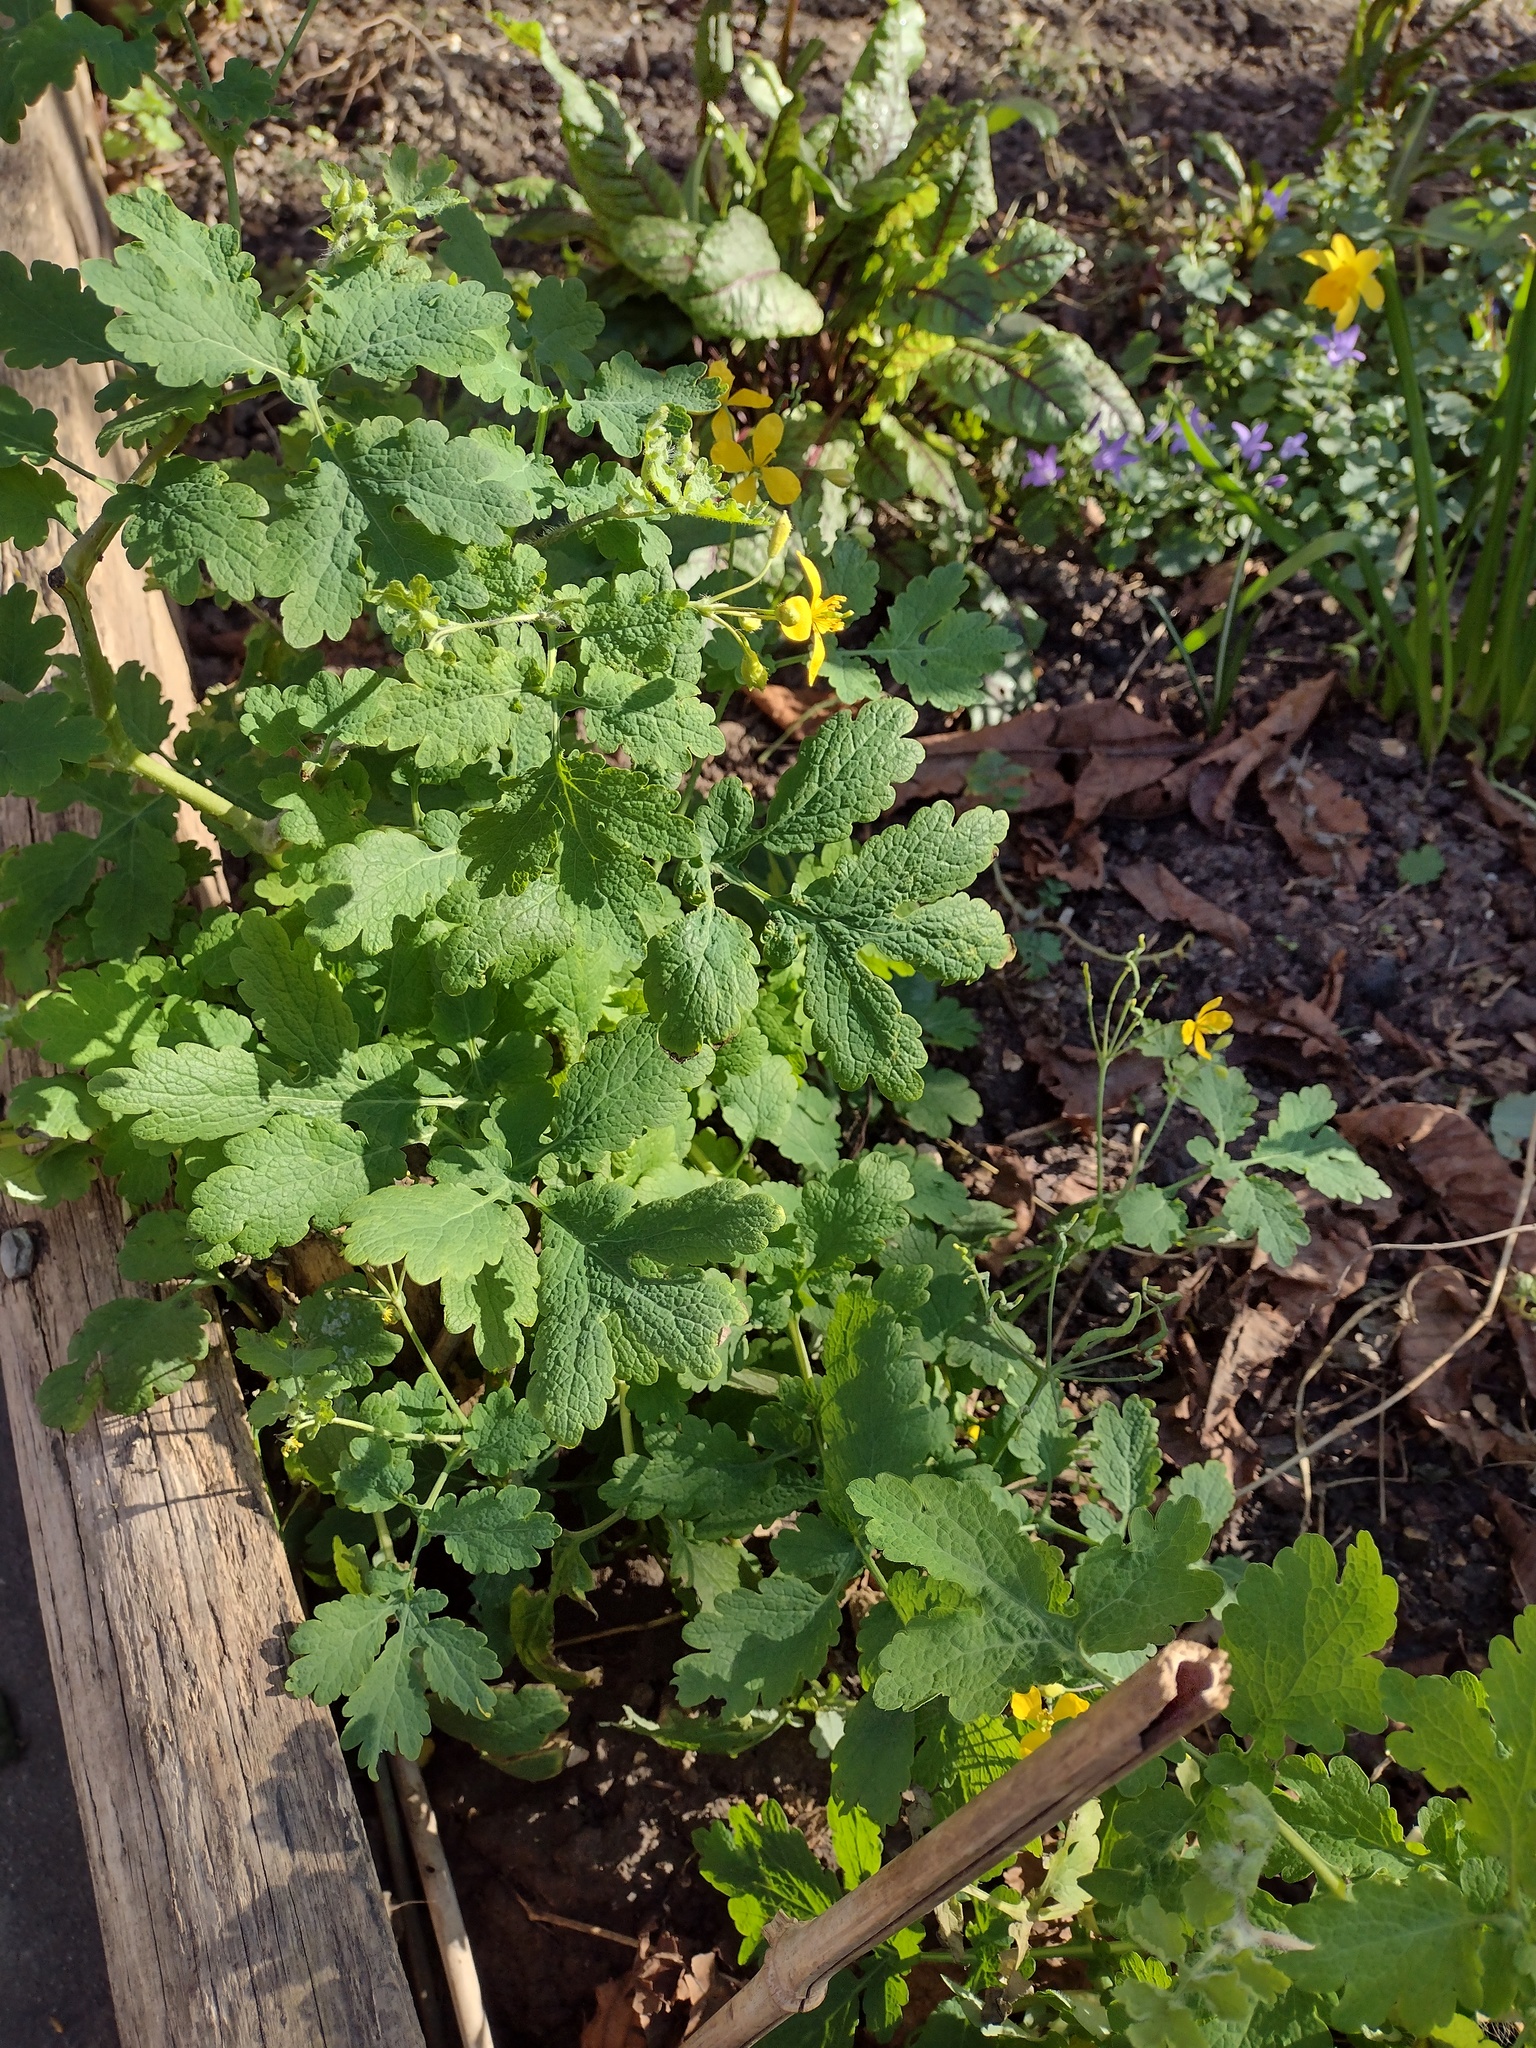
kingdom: Plantae
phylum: Tracheophyta
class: Magnoliopsida
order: Ranunculales
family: Papaveraceae
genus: Chelidonium
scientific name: Chelidonium majus
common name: Greater celandine
